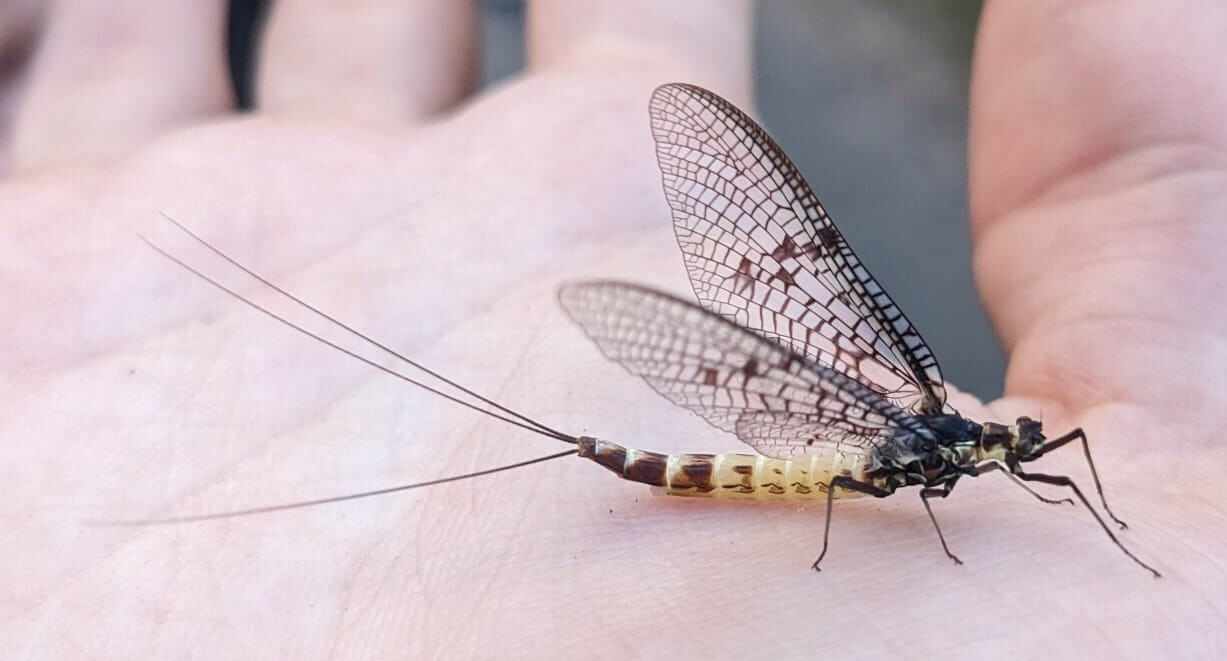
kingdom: Animalia
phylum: Arthropoda
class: Insecta
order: Ephemeroptera
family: Ephemeridae
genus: Ephemera
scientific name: Ephemera danica
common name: Green dun
